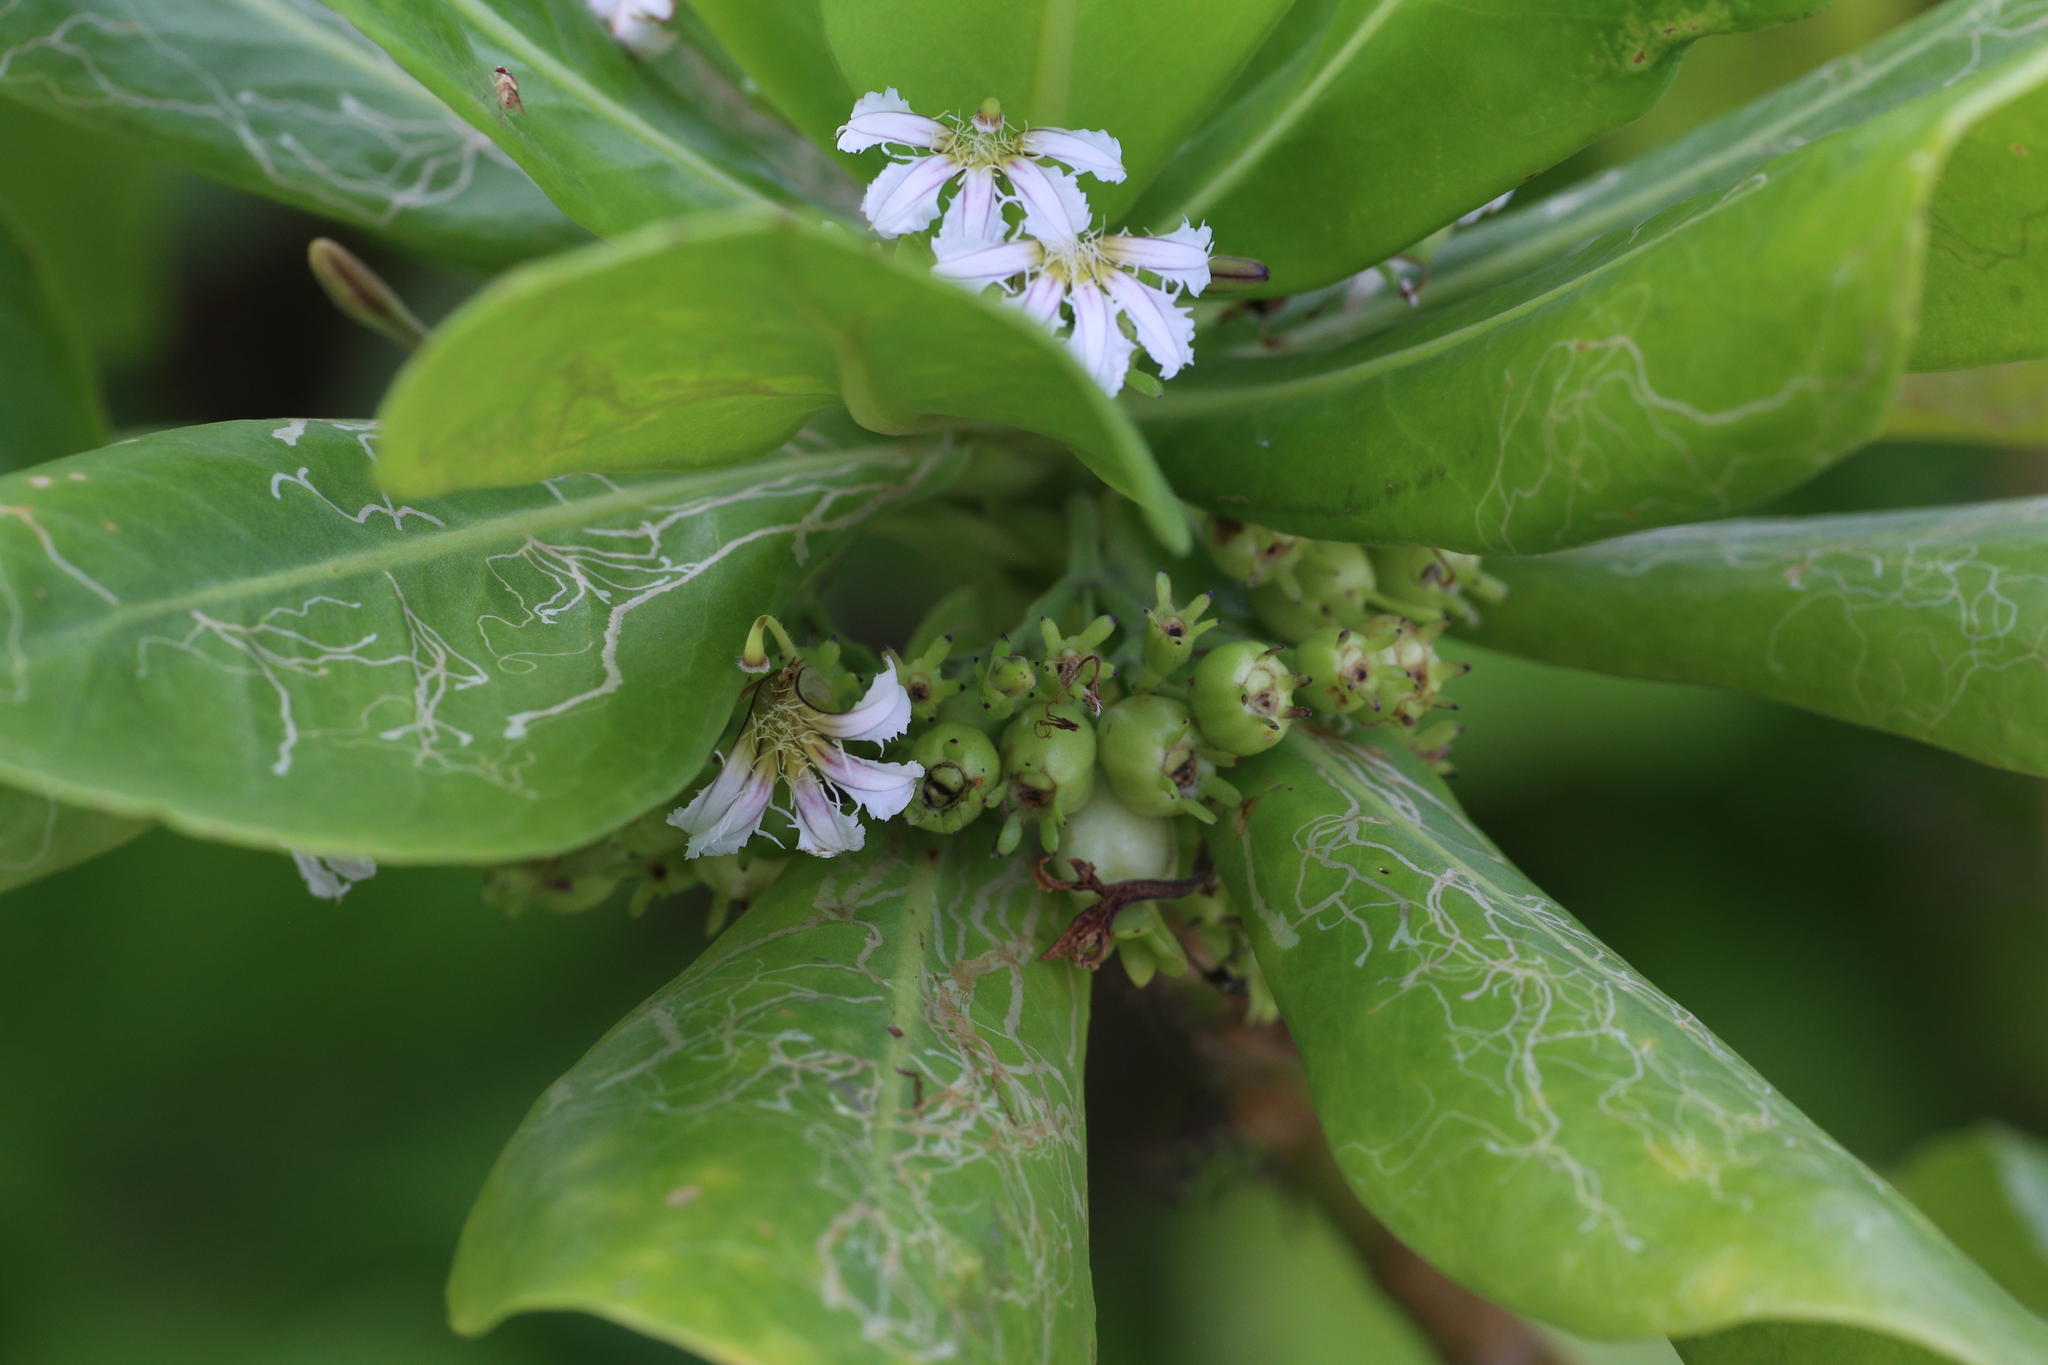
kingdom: Plantae
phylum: Tracheophyta
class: Magnoliopsida
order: Asterales
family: Goodeniaceae
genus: Scaevola
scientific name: Scaevola taccada
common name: Sea lettucetree
